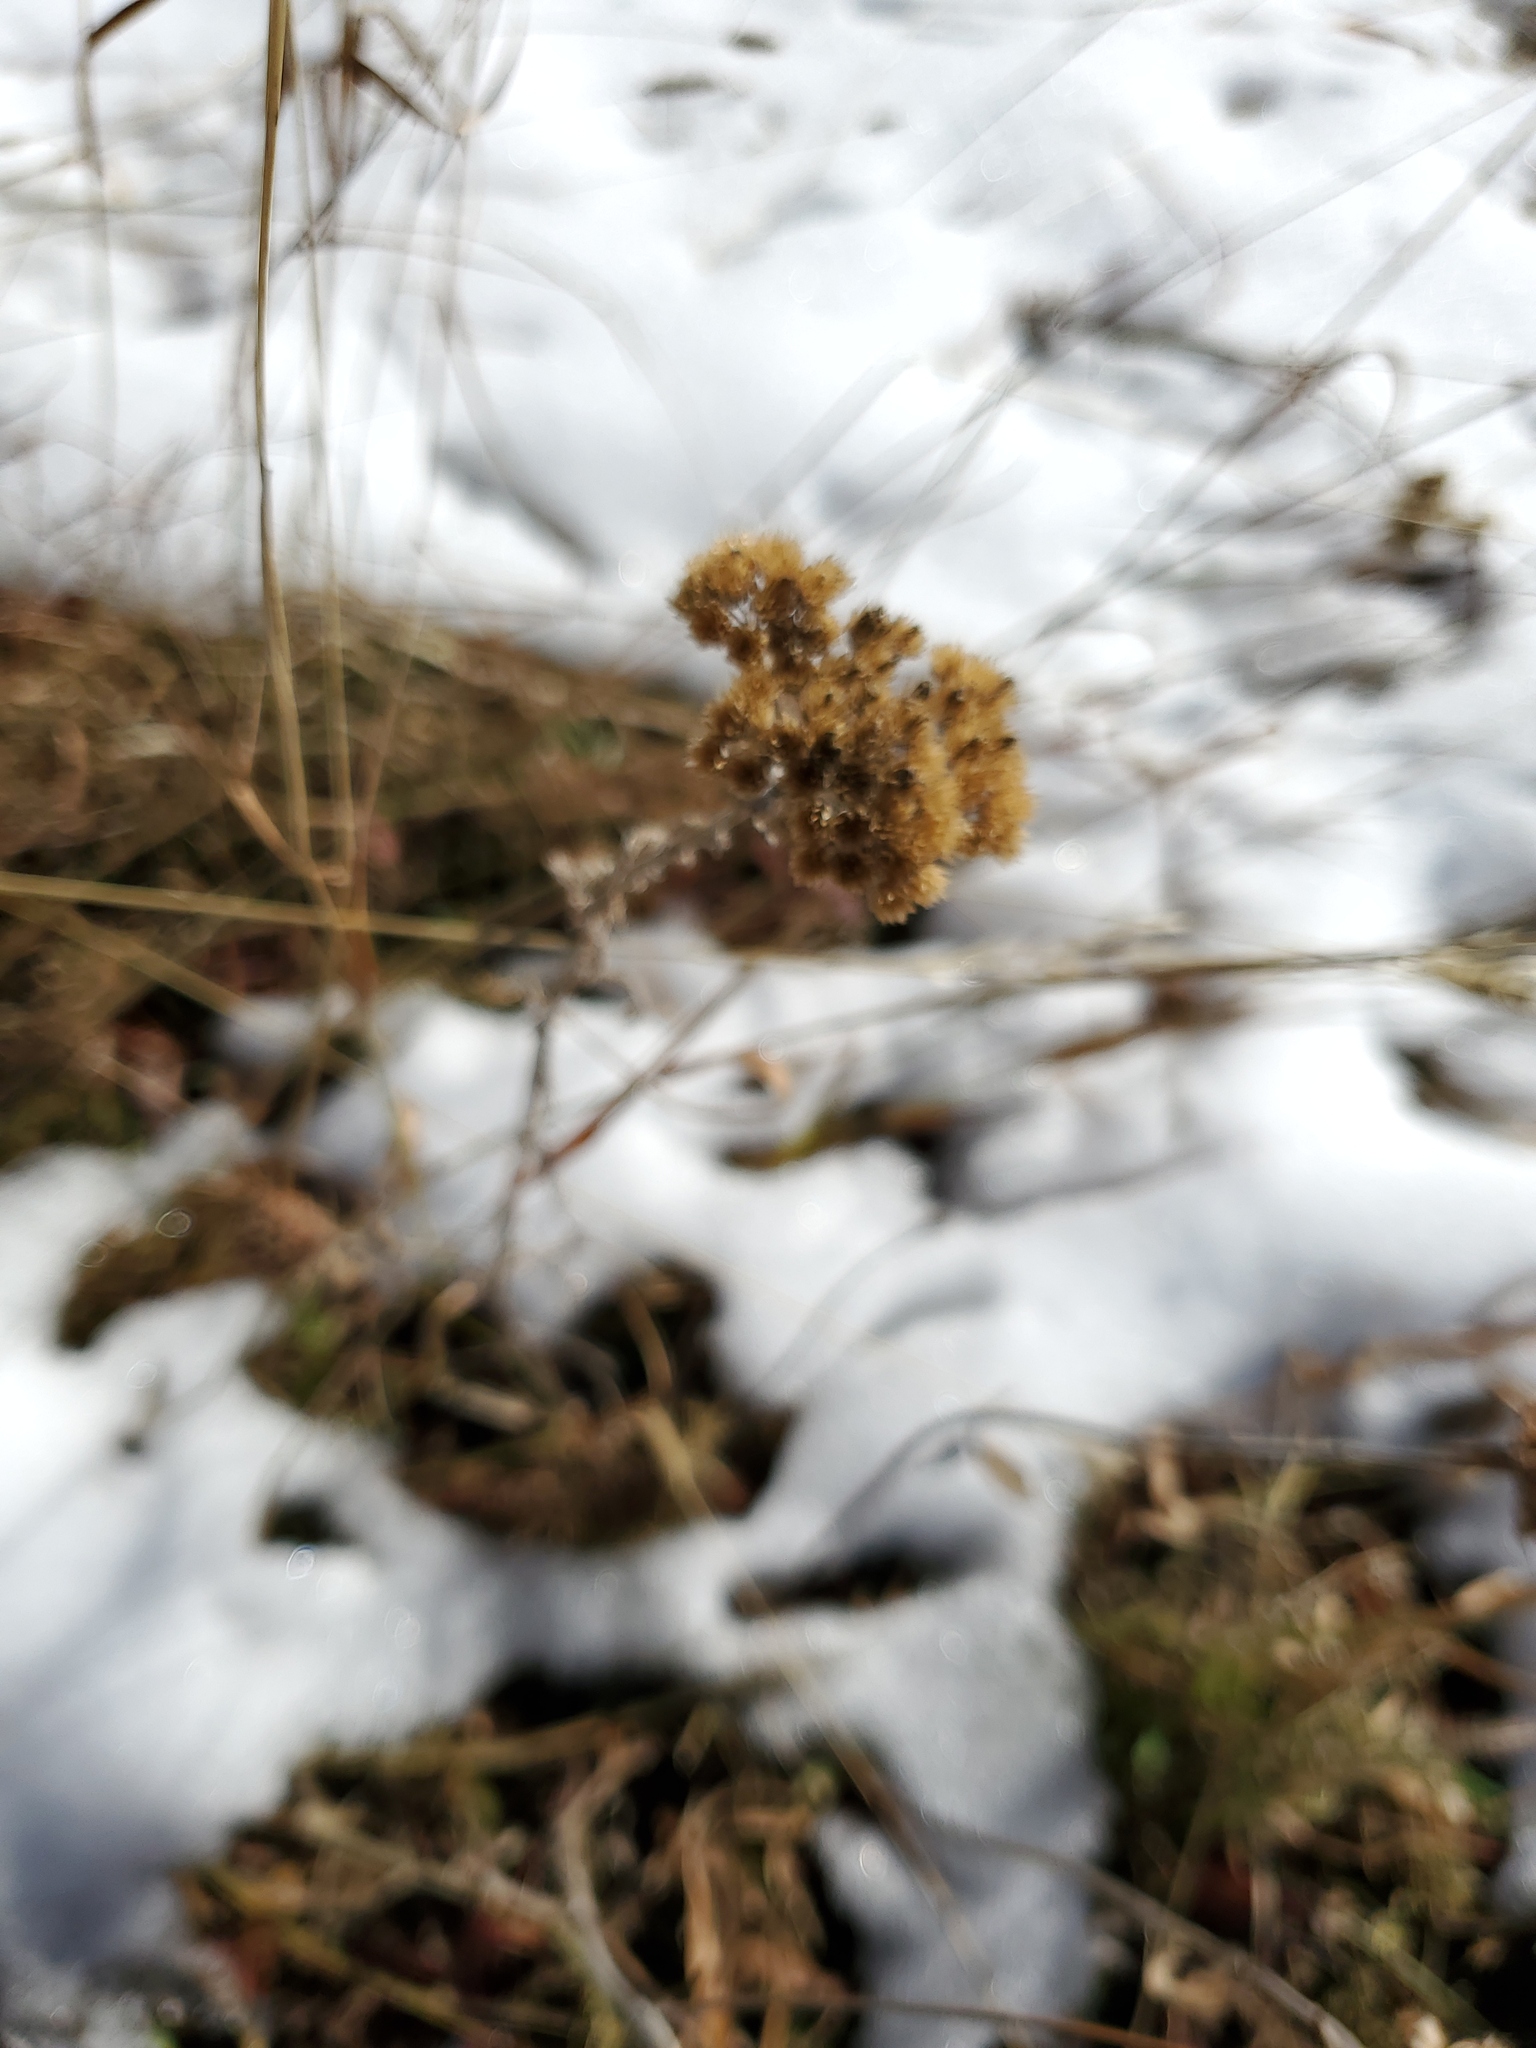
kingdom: Plantae
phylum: Tracheophyta
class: Magnoliopsida
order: Asterales
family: Asteraceae
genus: Achillea
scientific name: Achillea millefolium
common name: Yarrow
